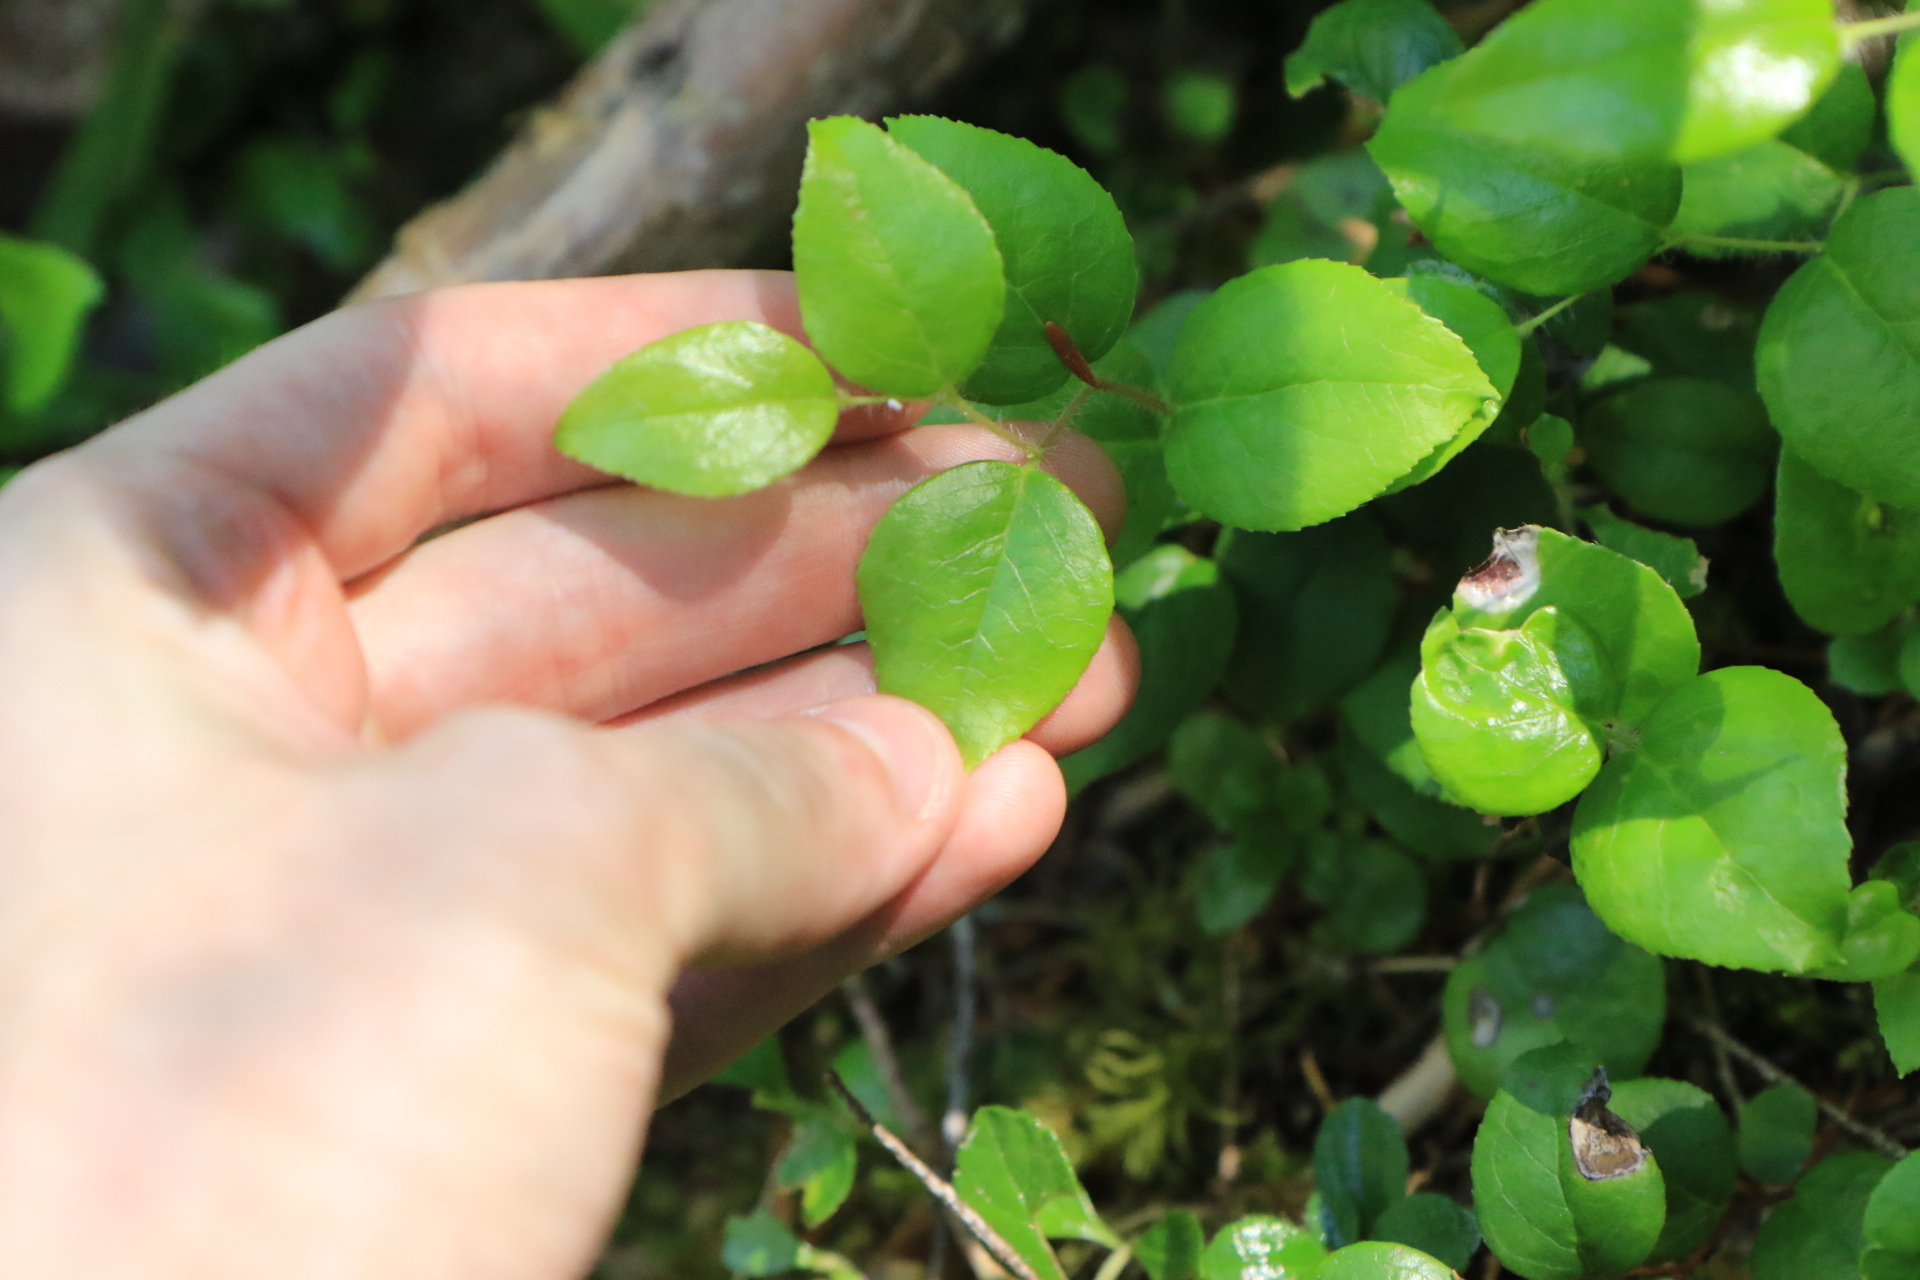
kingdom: Plantae
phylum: Tracheophyta
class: Magnoliopsida
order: Ericales
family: Ericaceae
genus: Gaultheria
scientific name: Gaultheria ovatifolia
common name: Oregon wintergreen
